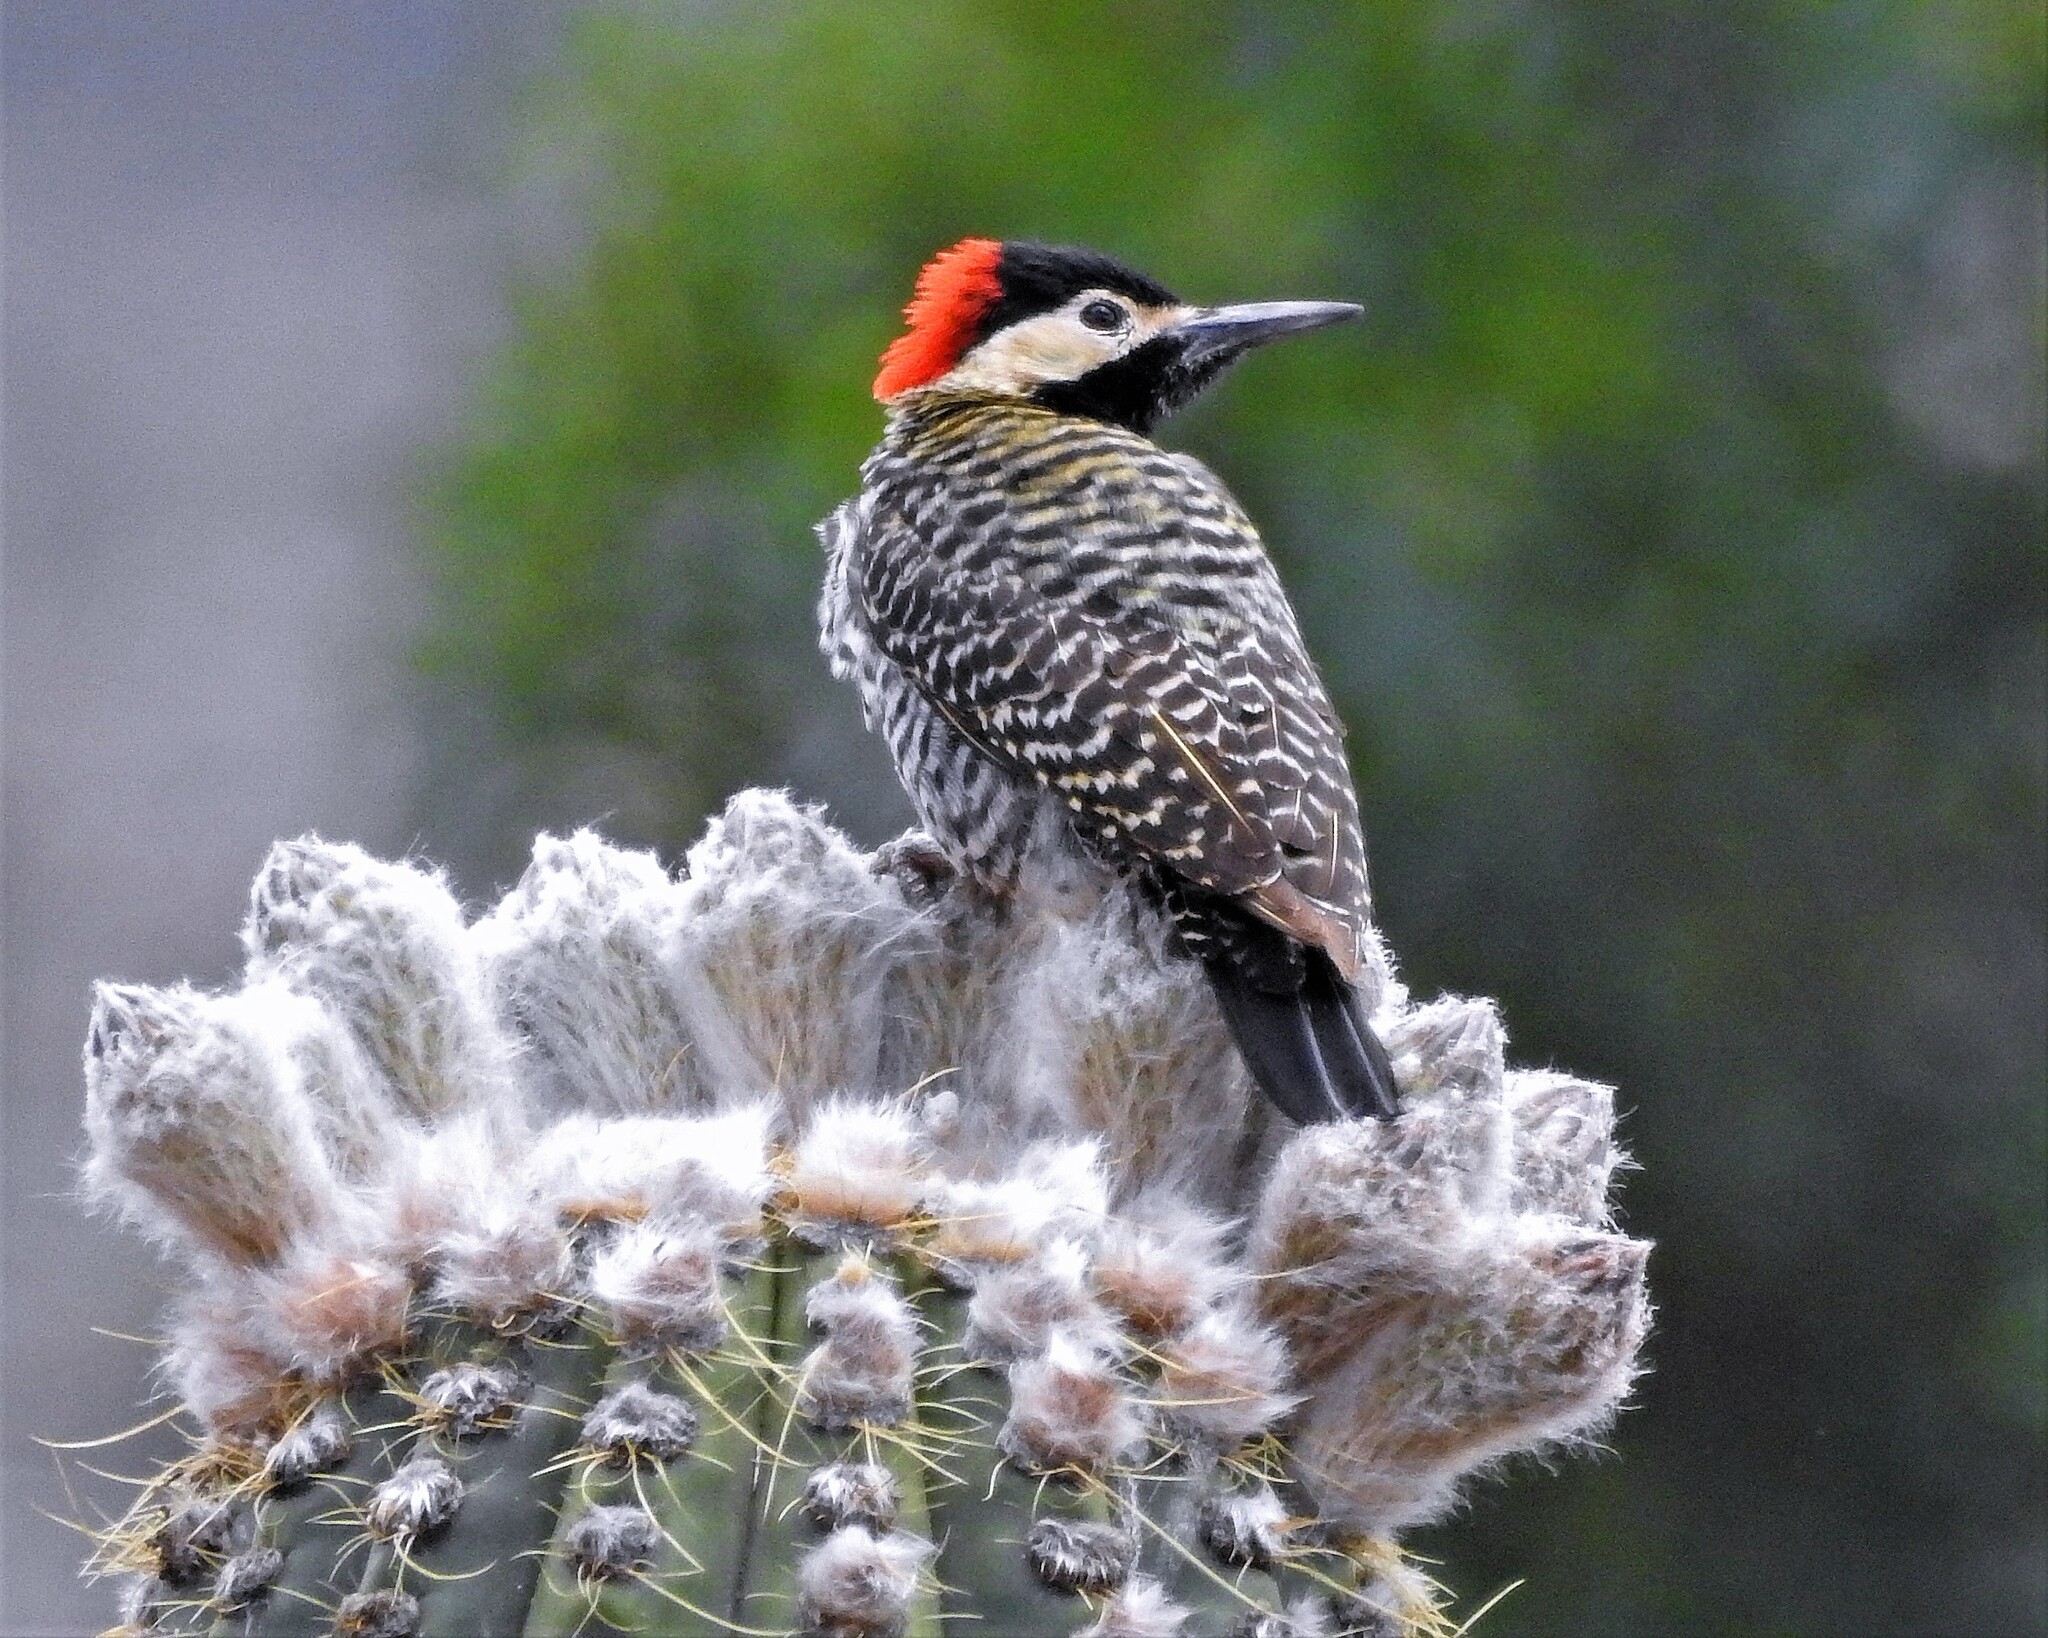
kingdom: Animalia
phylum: Chordata
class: Aves
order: Piciformes
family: Picidae
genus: Colaptes
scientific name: Colaptes melanochloros
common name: Green-barred woodpecker
